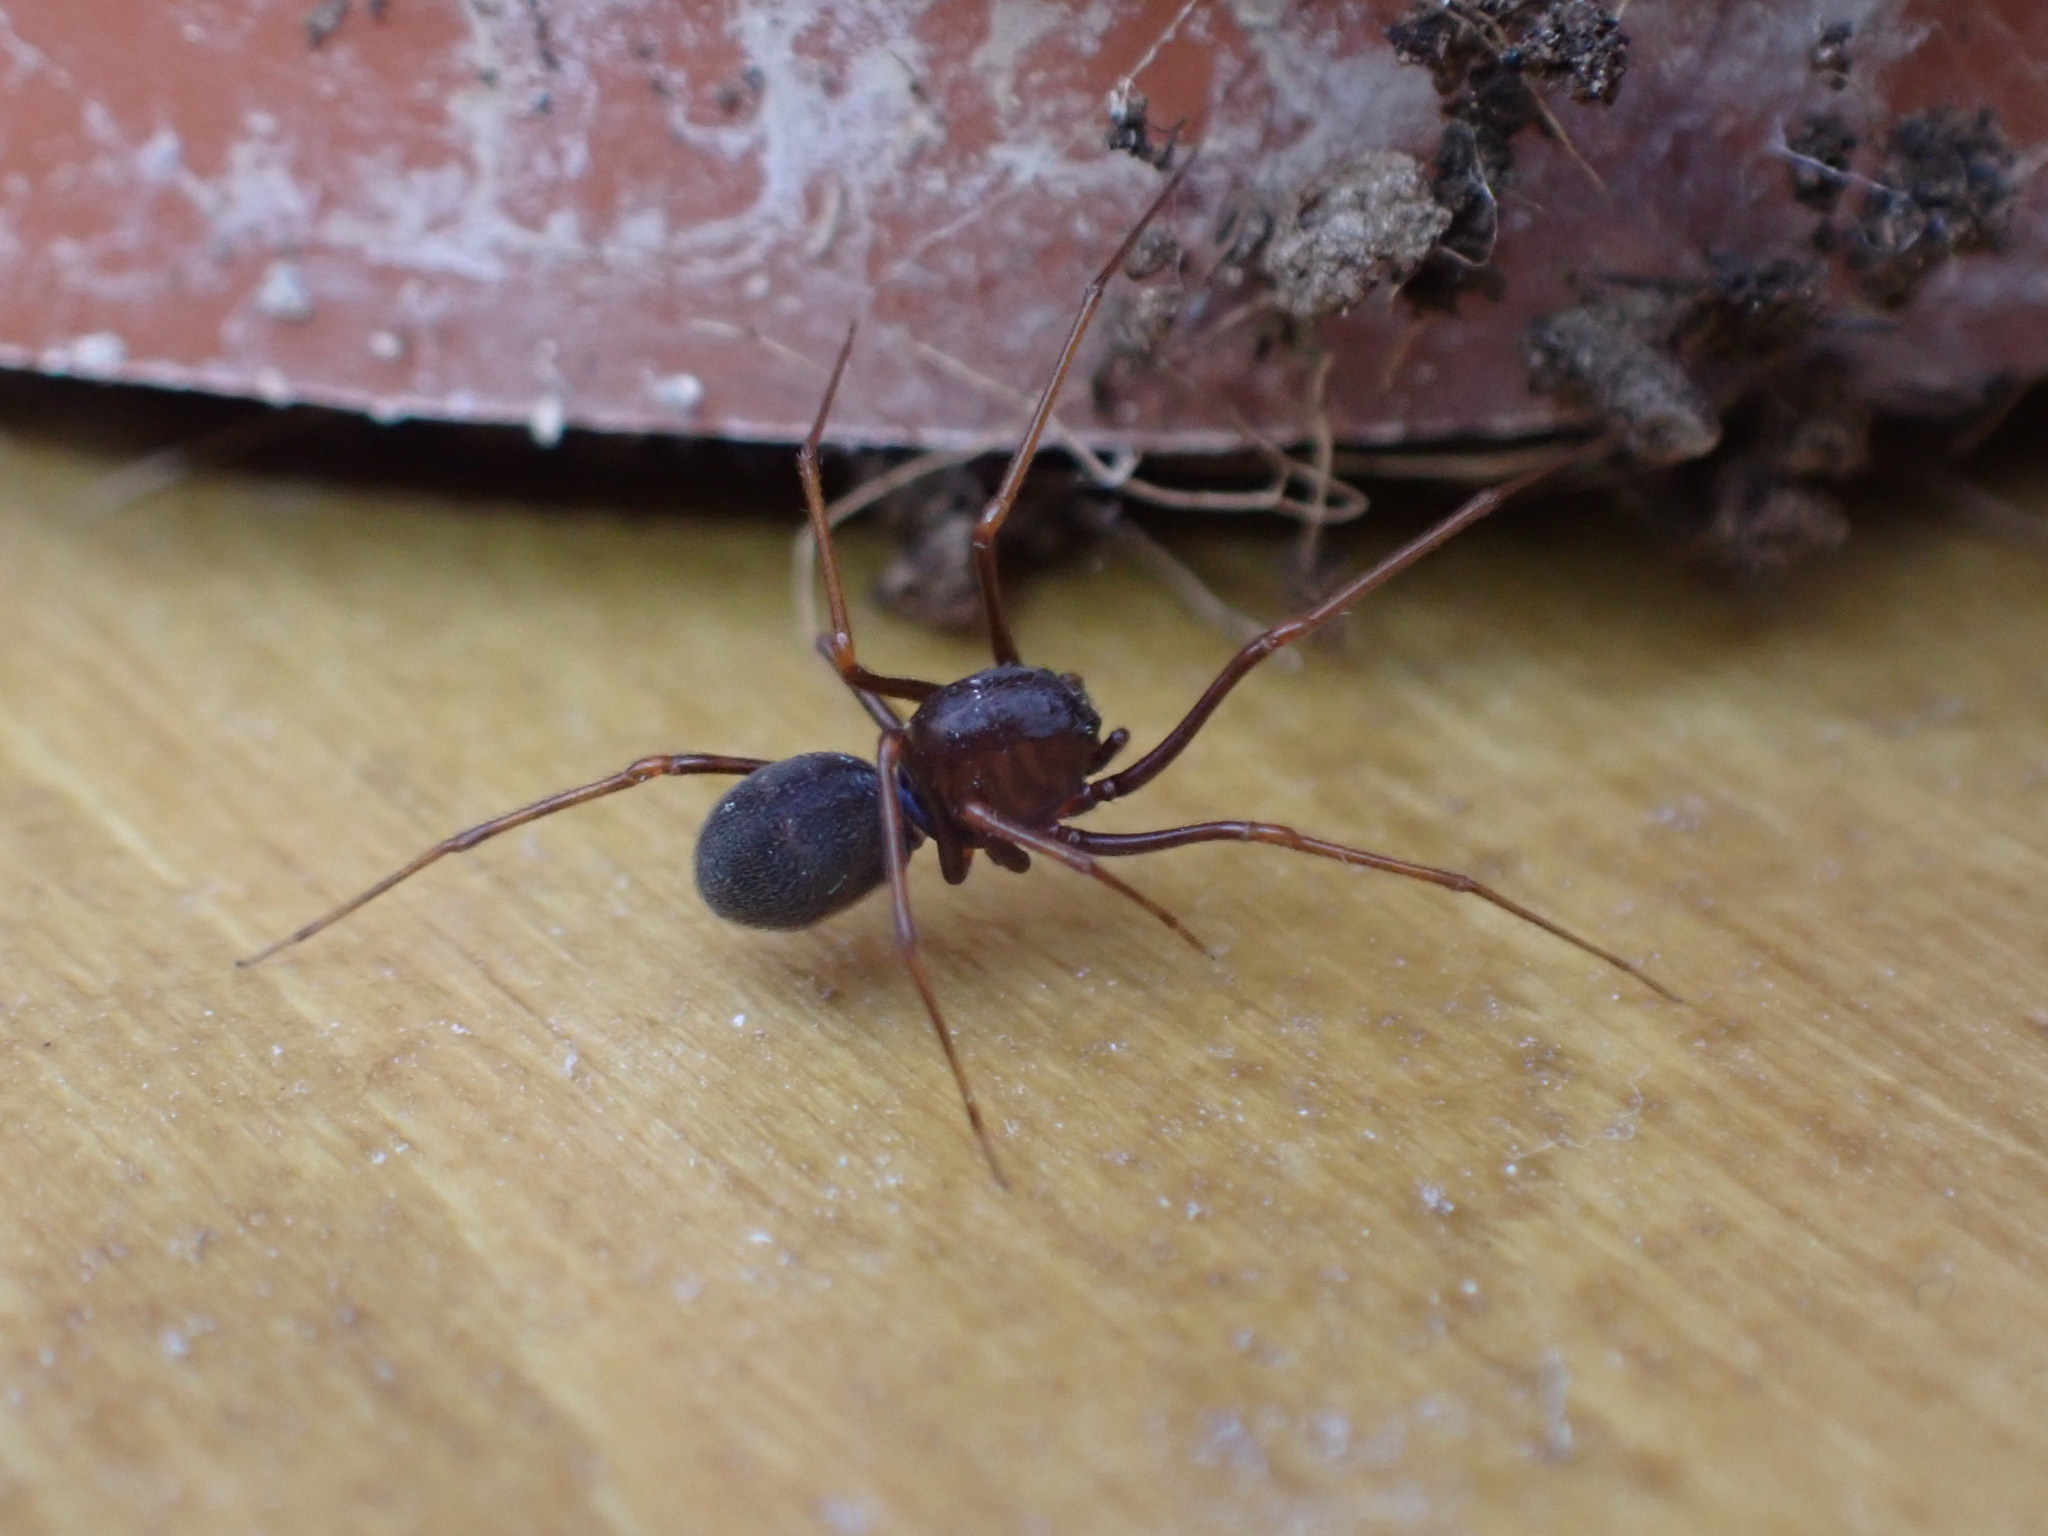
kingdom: Animalia
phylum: Arthropoda
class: Arachnida
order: Araneae
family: Scytodidae
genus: Scytodes
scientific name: Scytodes fusca
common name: Spitting spiders
